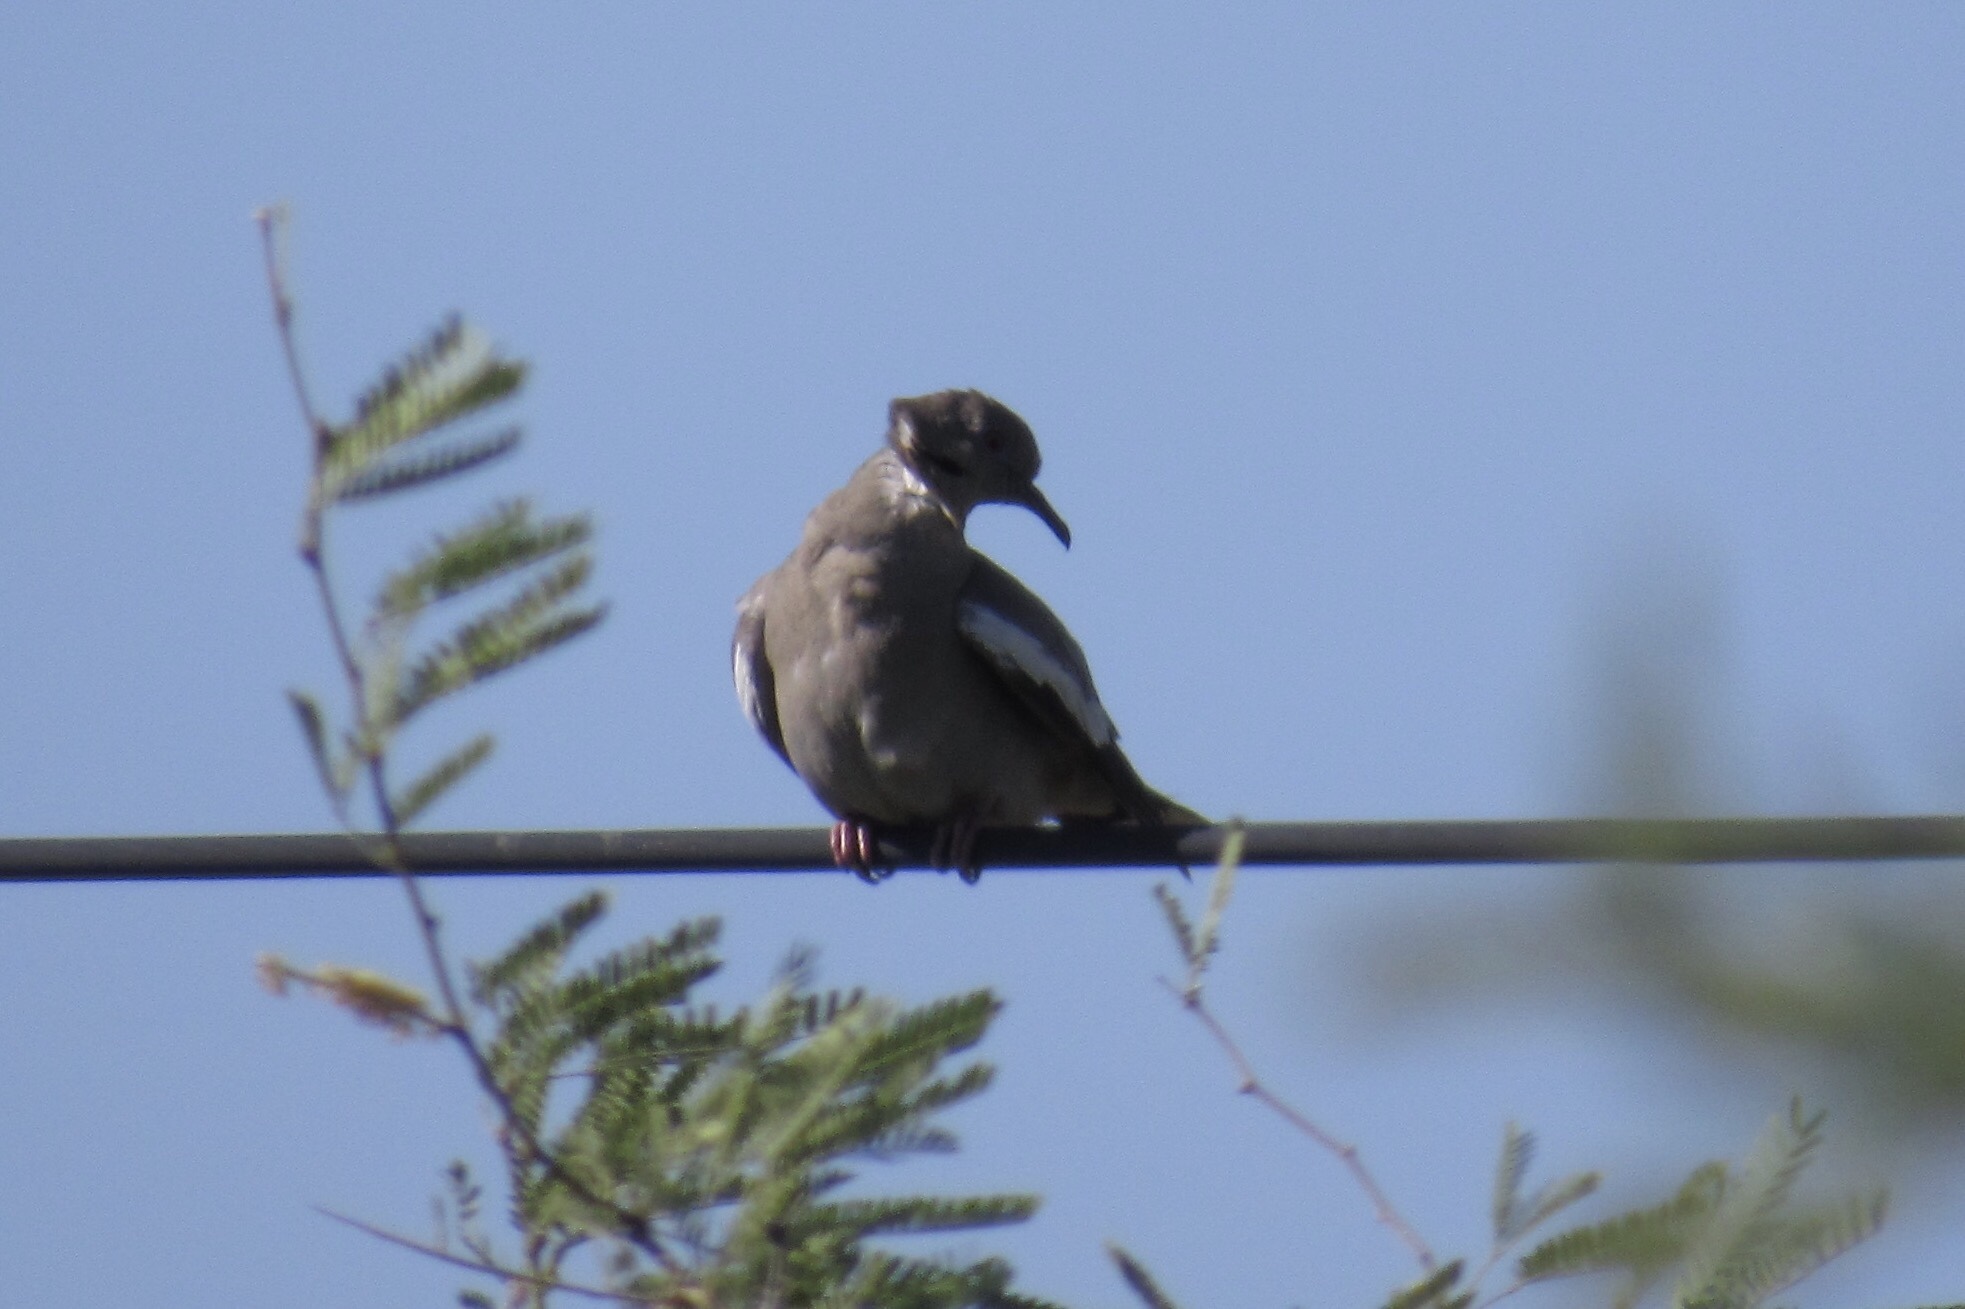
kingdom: Animalia
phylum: Chordata
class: Aves
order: Columbiformes
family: Columbidae
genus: Zenaida
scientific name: Zenaida asiatica
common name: White-winged dove
